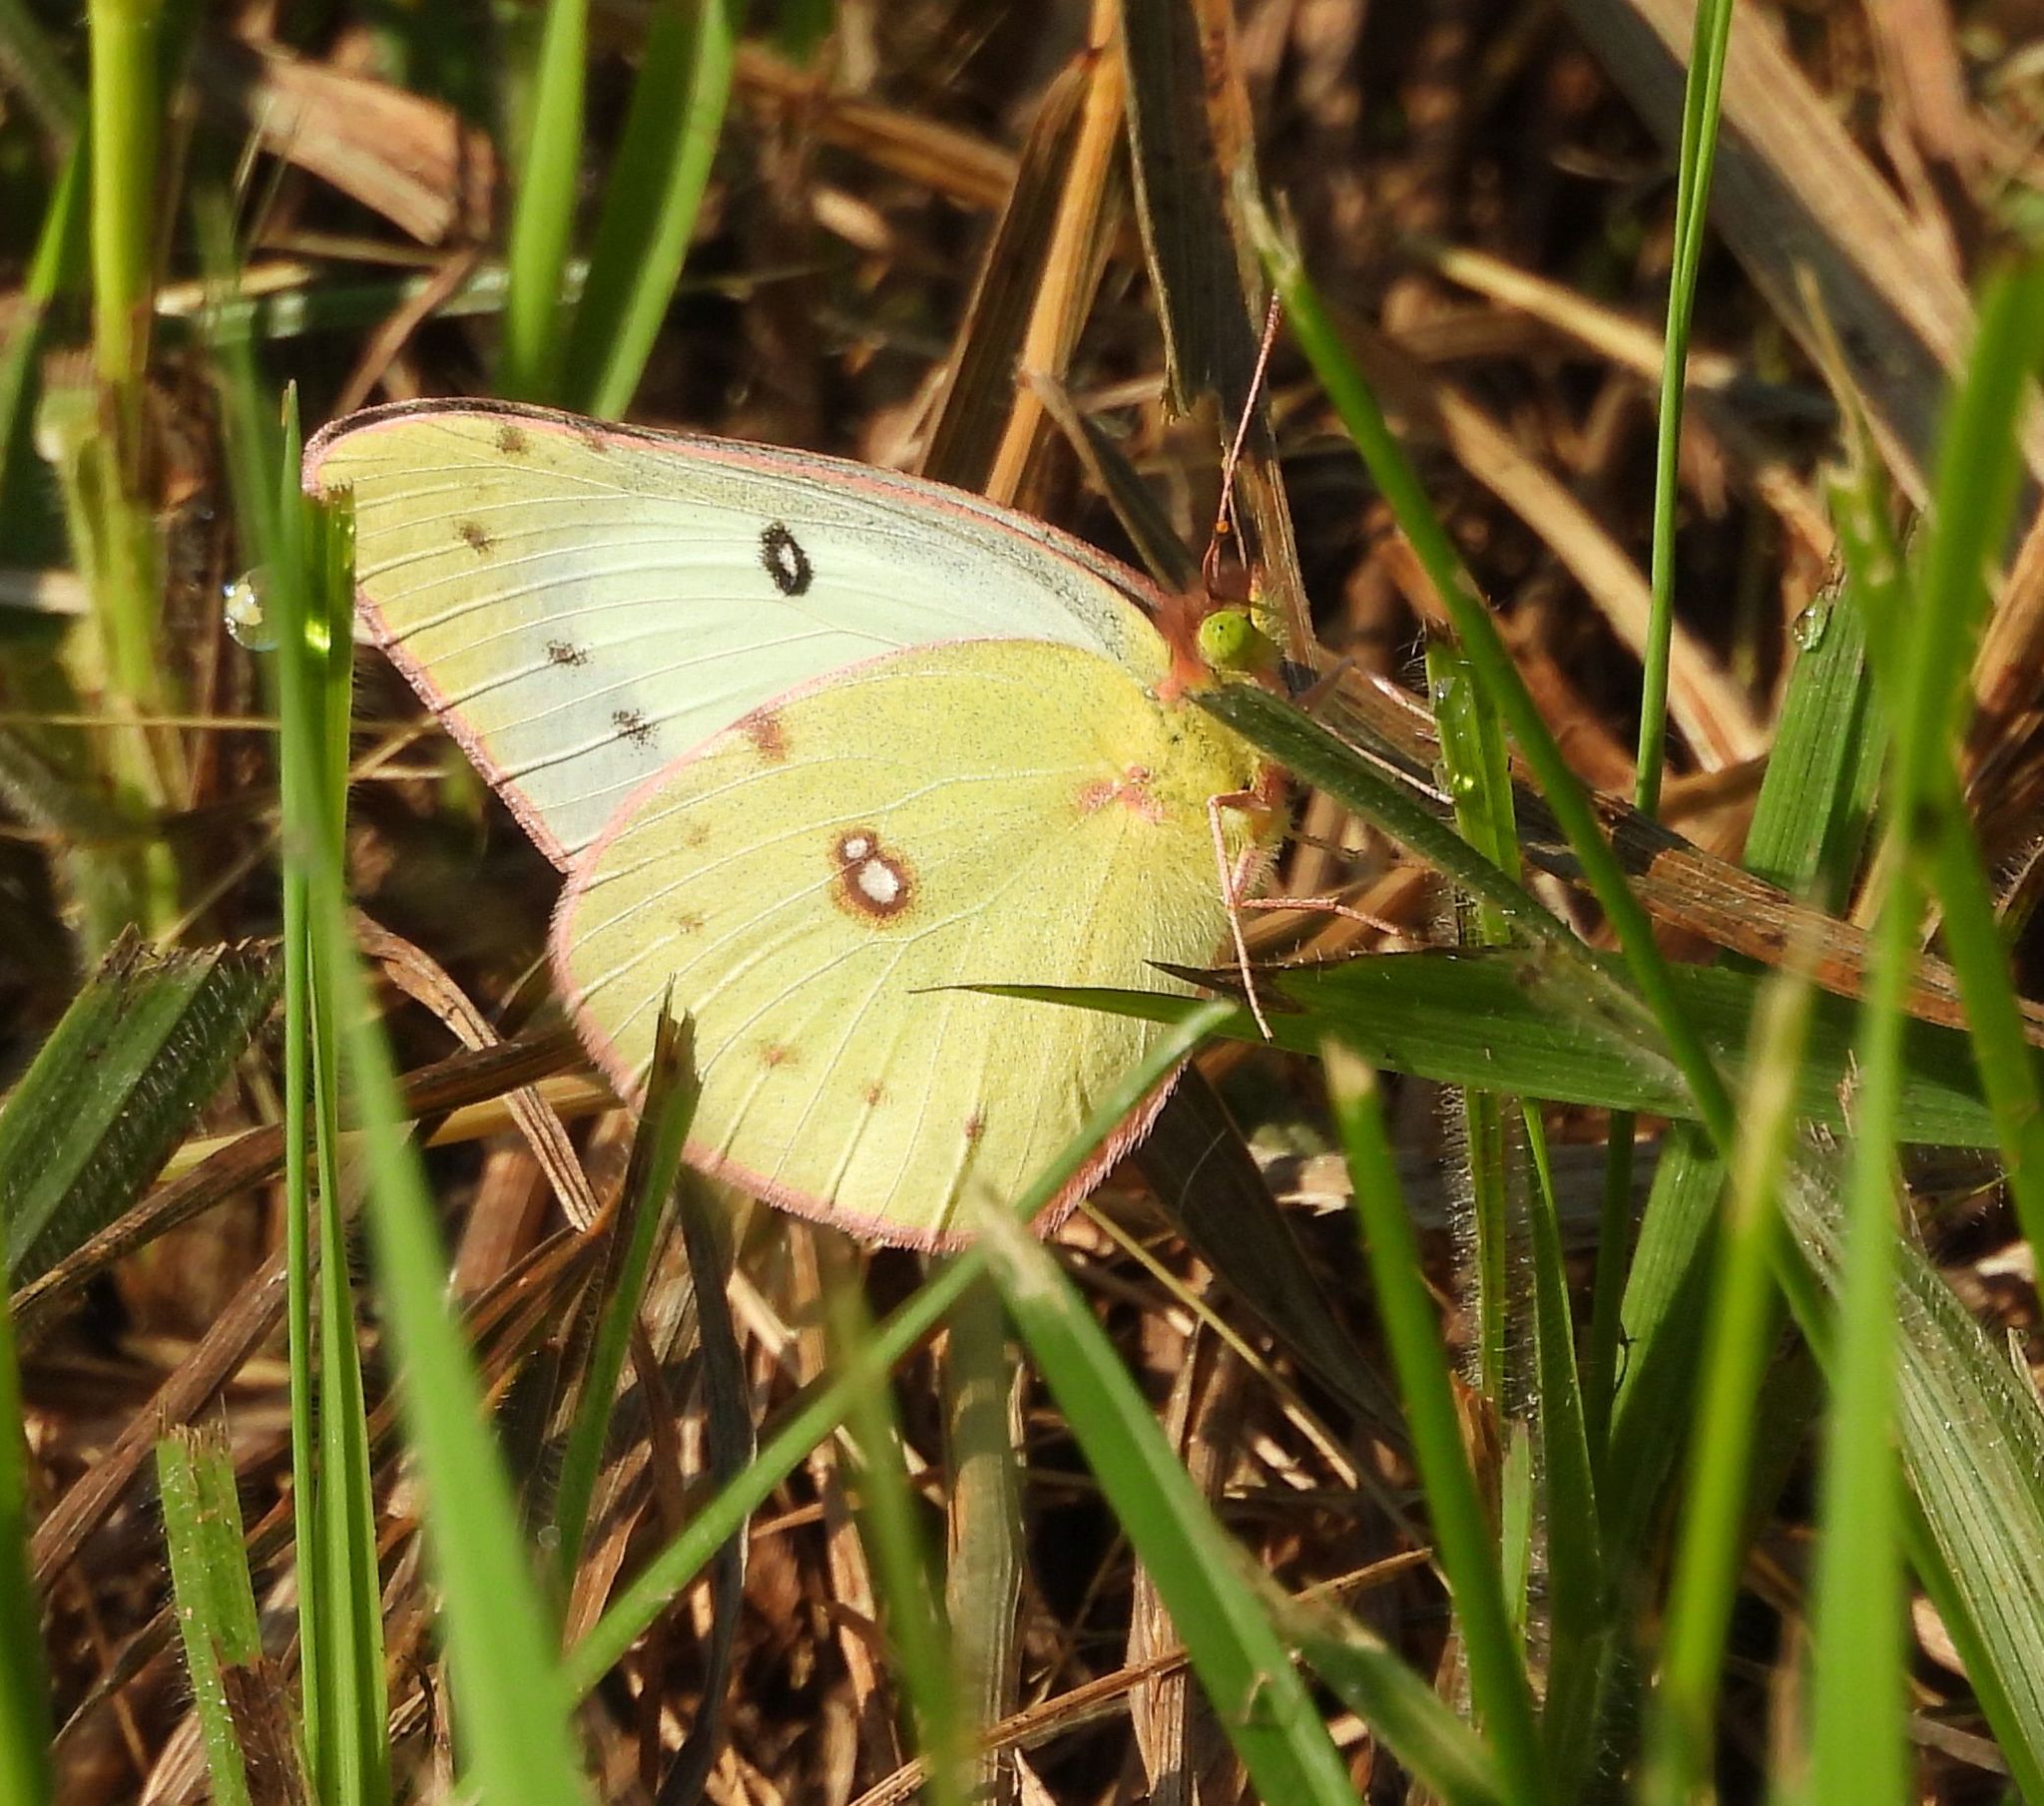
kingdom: Animalia
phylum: Arthropoda
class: Insecta
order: Lepidoptera
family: Pieridae
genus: Colias
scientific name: Colias philodice
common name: Clouded sulphur
